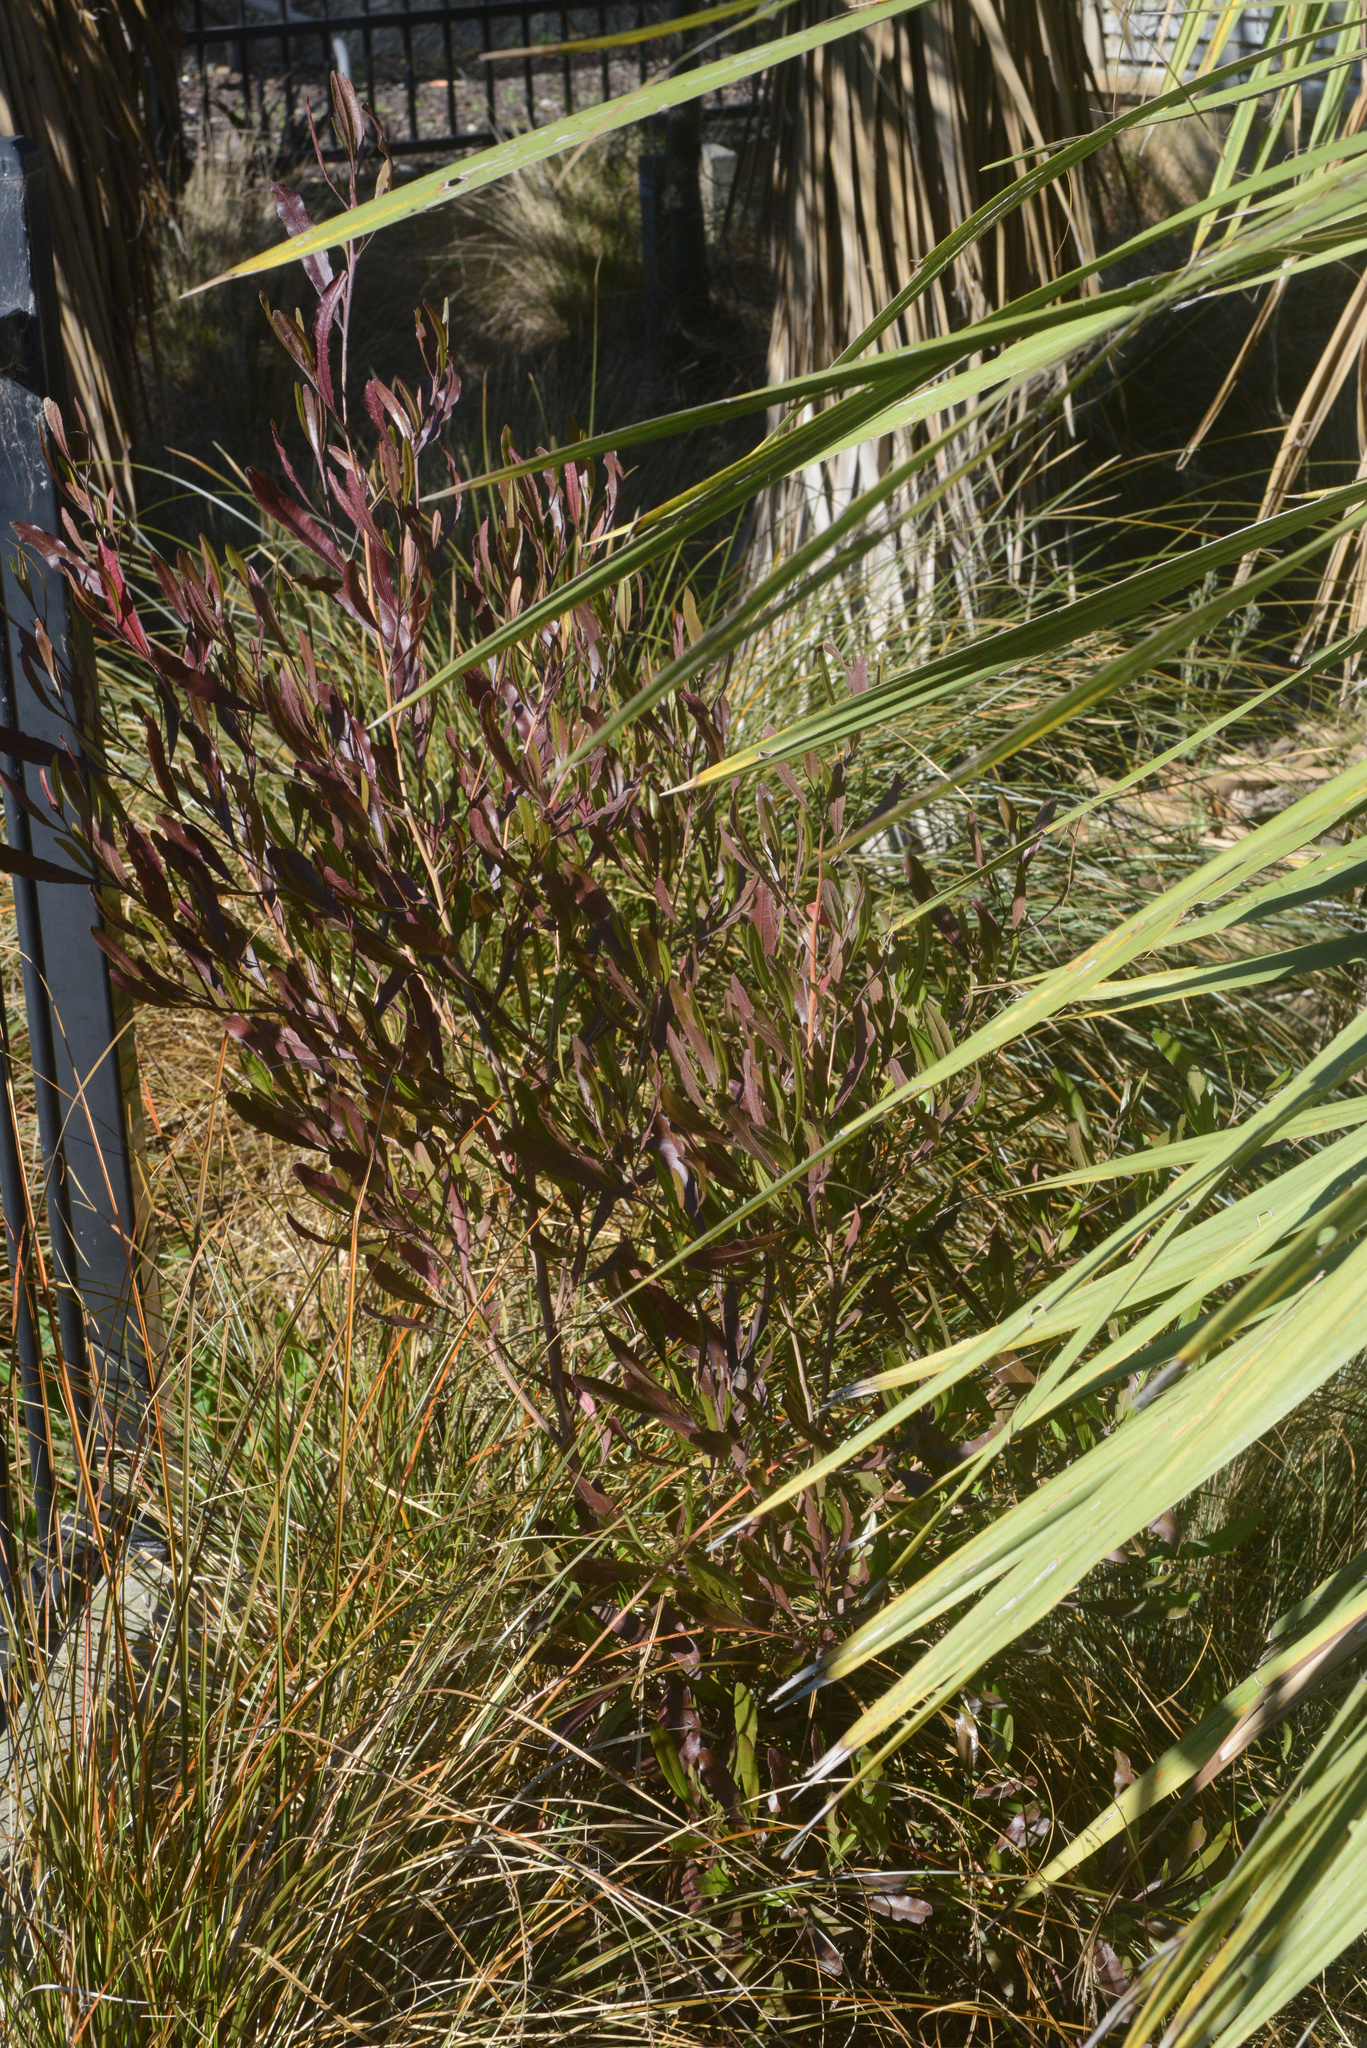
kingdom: Plantae
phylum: Tracheophyta
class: Magnoliopsida
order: Sapindales
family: Sapindaceae
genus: Dodonaea
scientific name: Dodonaea viscosa
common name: Hopbush
